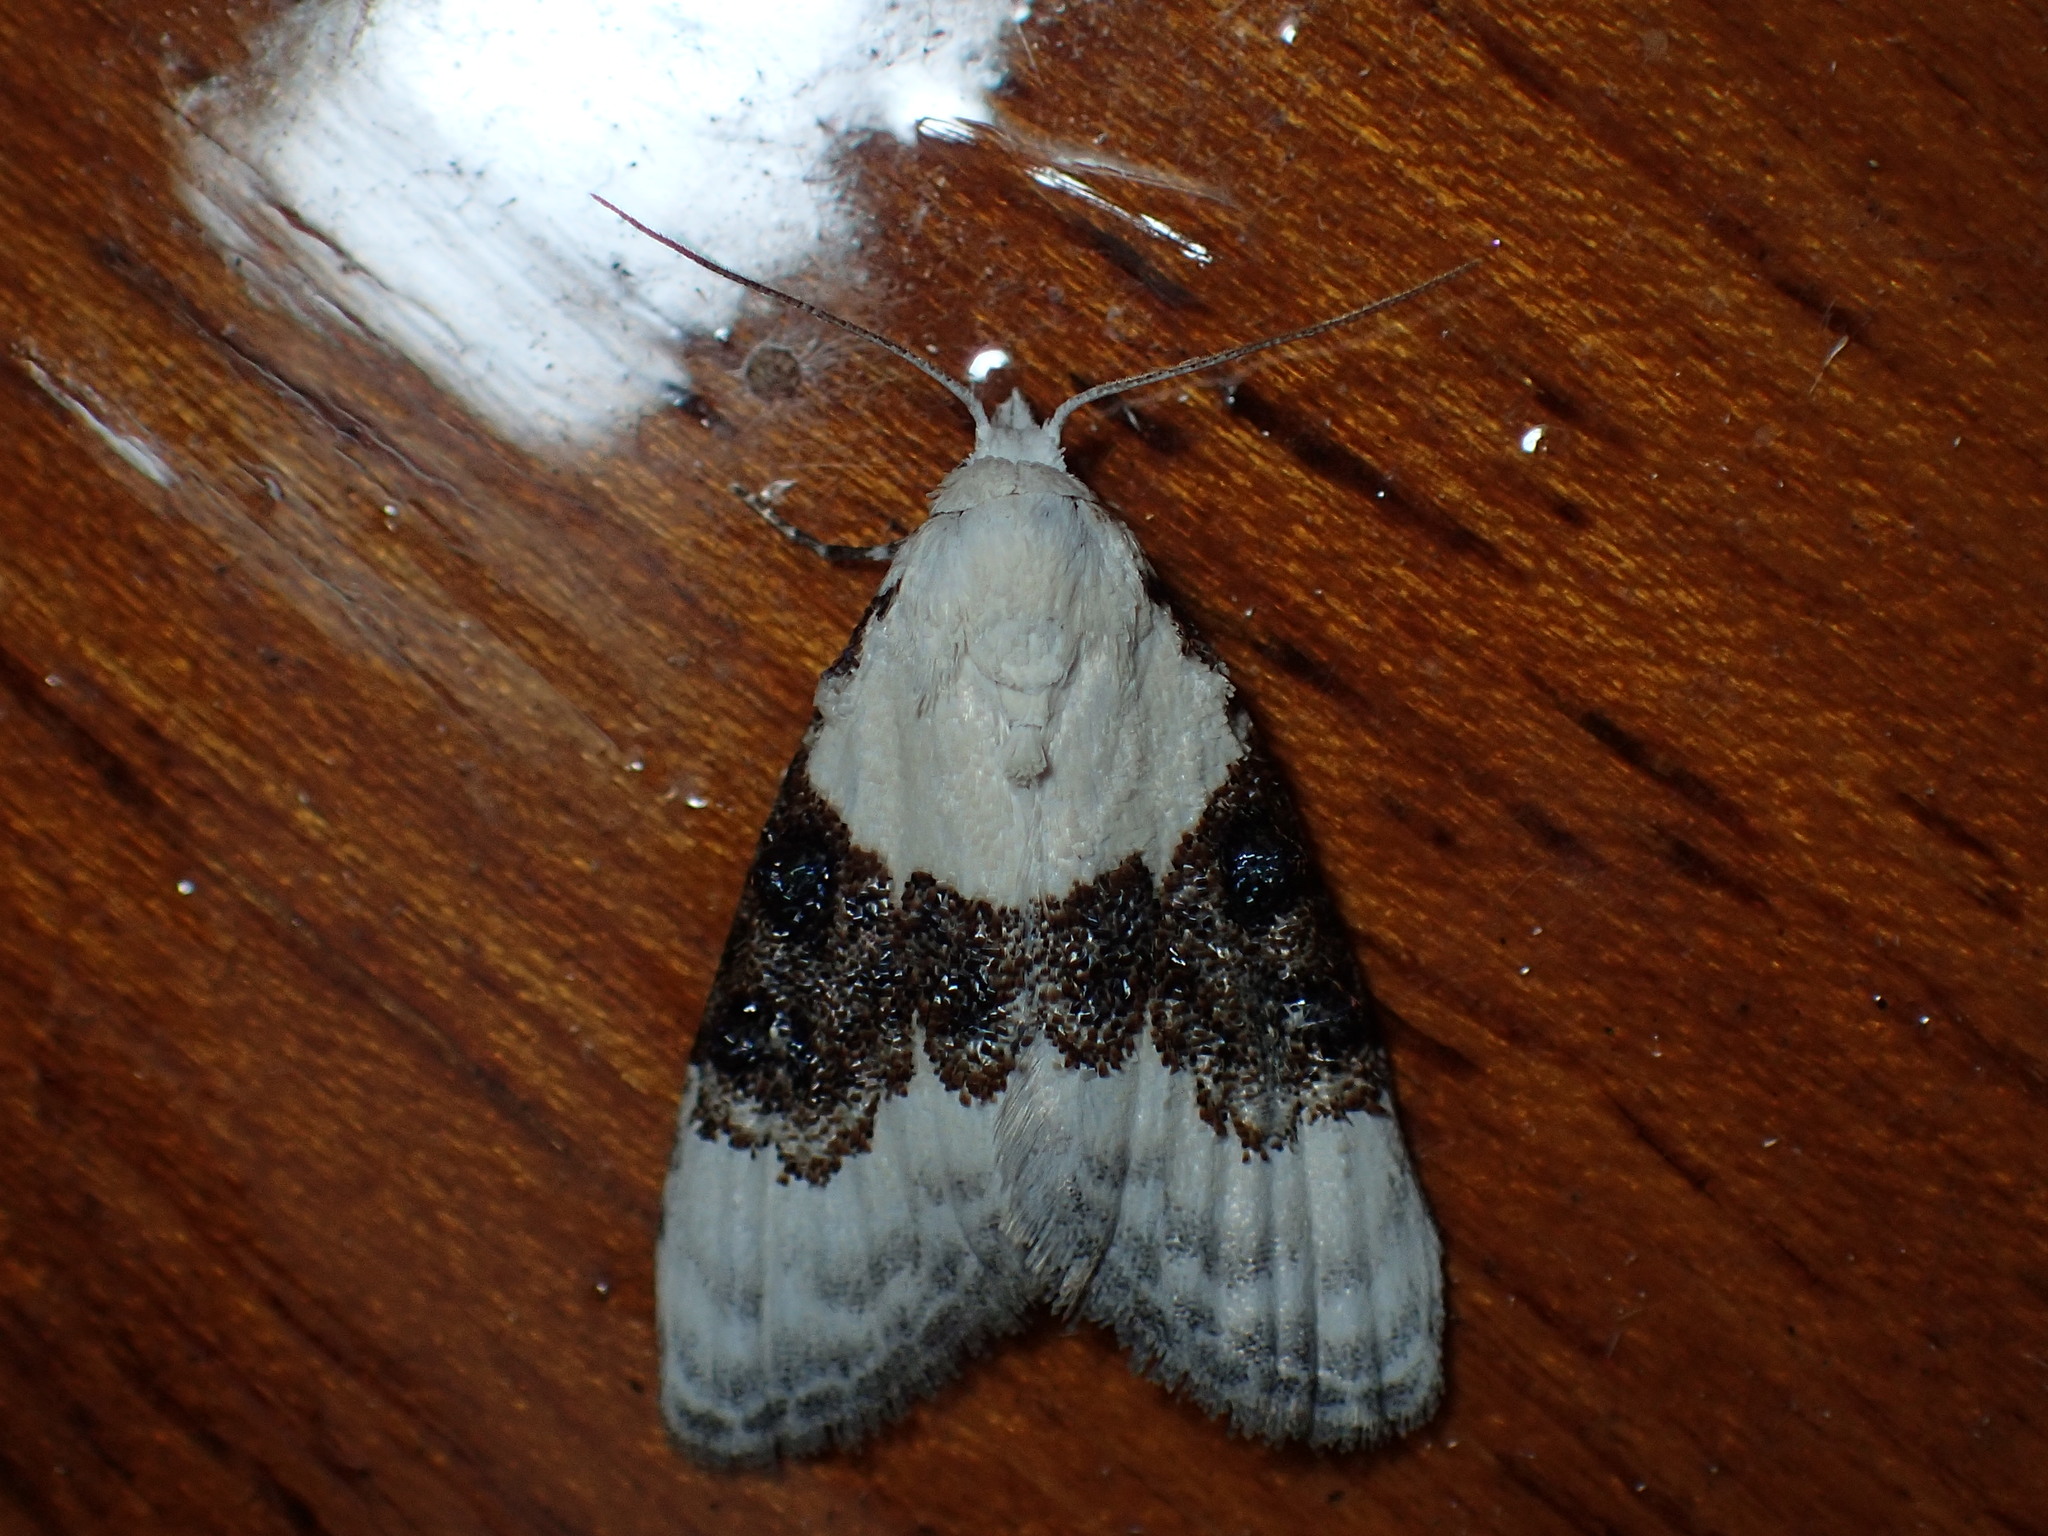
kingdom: Animalia
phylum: Arthropoda
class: Insecta
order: Lepidoptera
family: Nolidae
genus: Nola
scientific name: Nola pustulata
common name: Sharp-blotched nola moth
